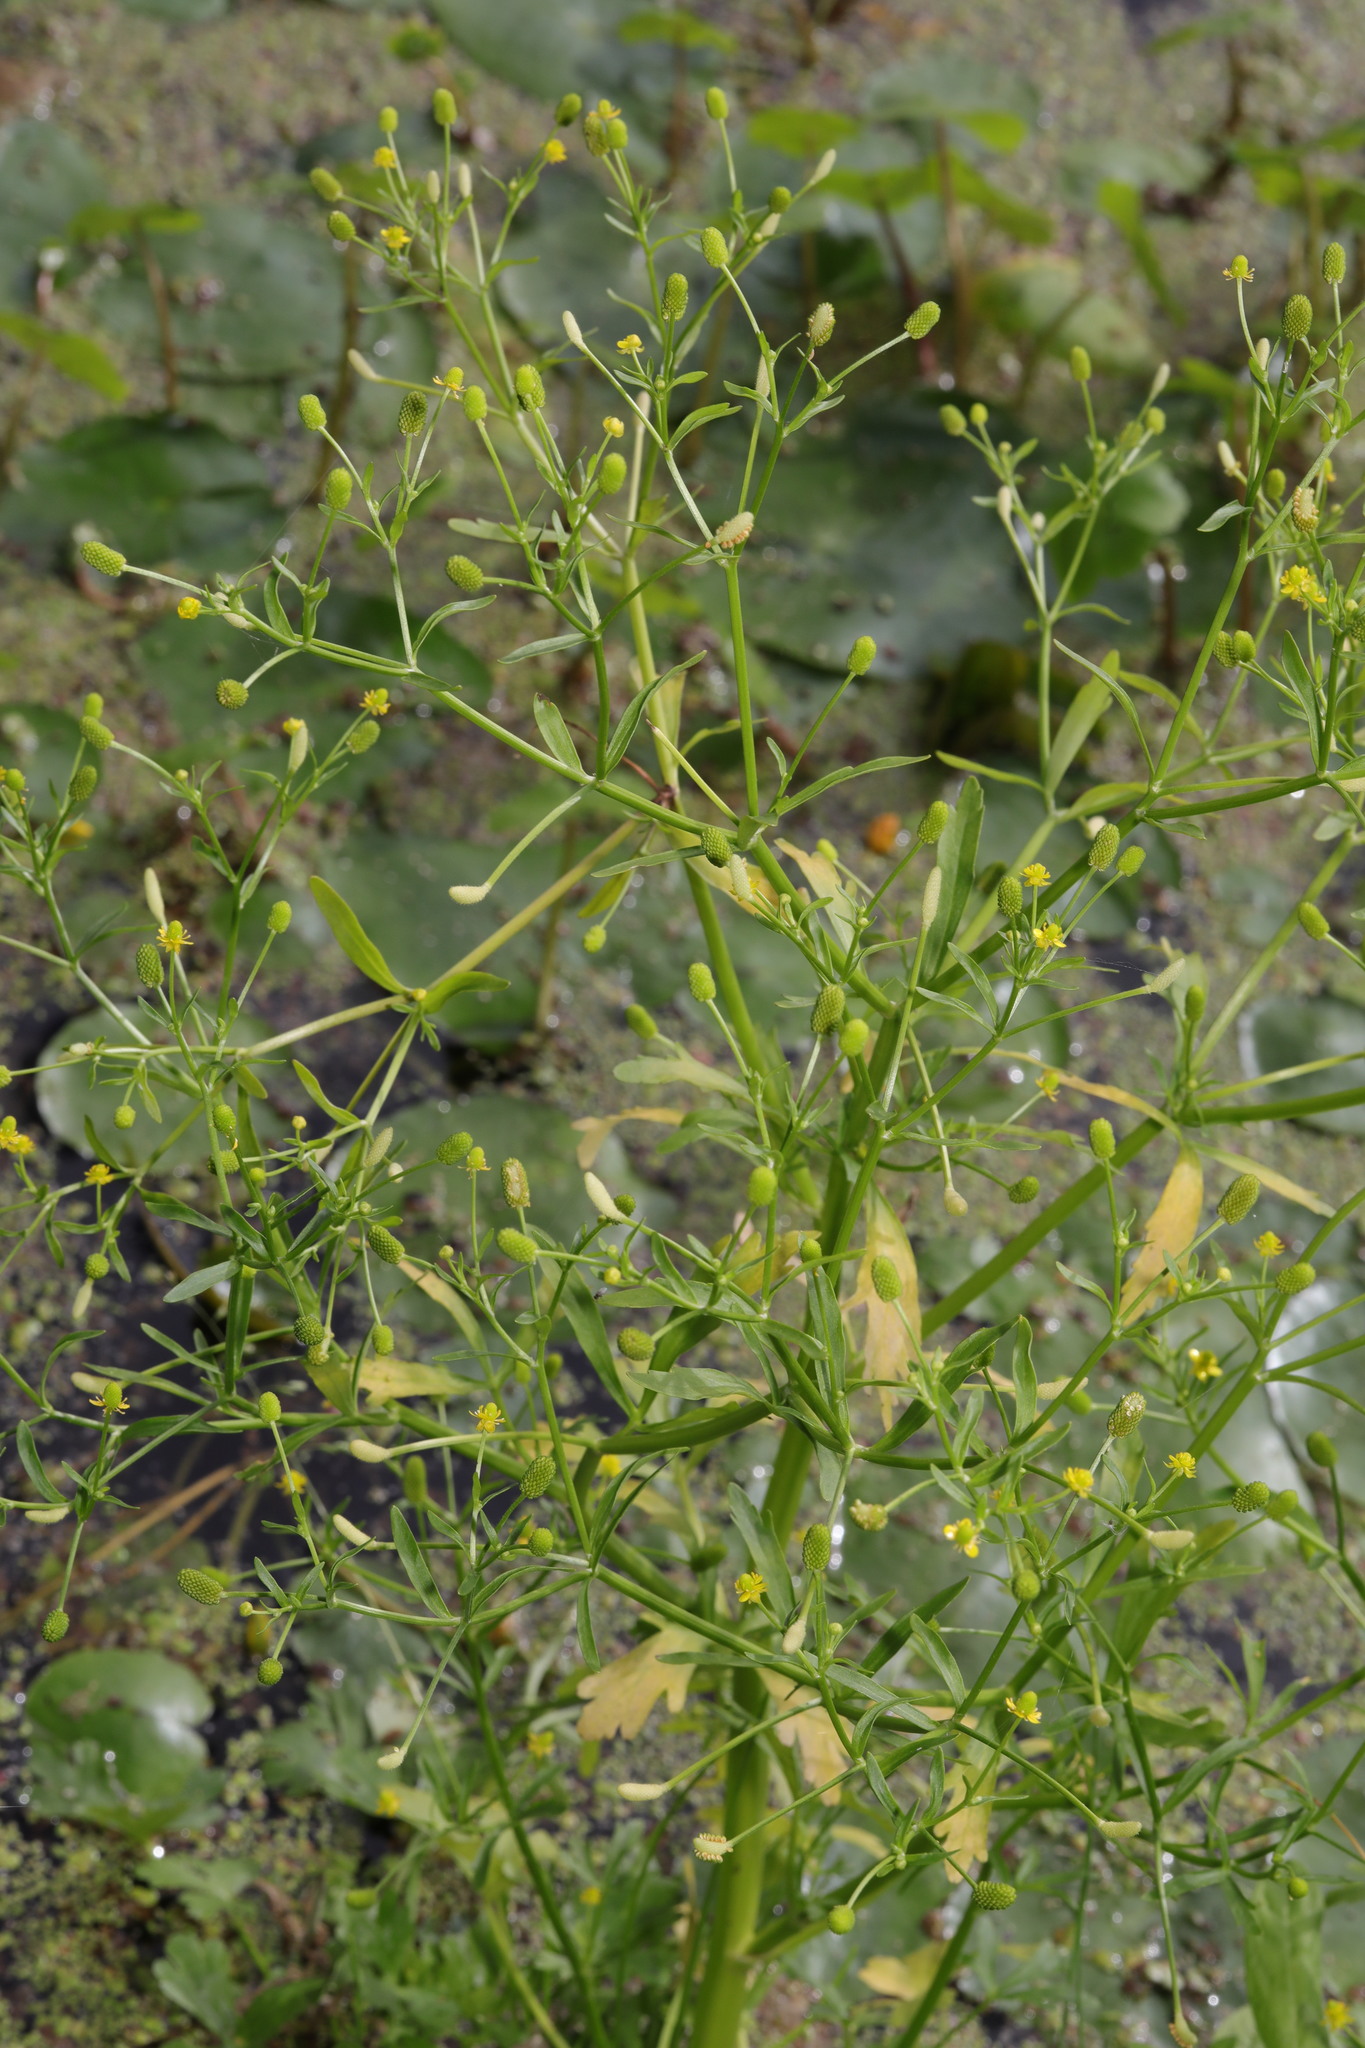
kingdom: Plantae
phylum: Tracheophyta
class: Magnoliopsida
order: Ranunculales
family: Ranunculaceae
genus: Ranunculus
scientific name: Ranunculus sceleratus
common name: Celery-leaved buttercup
